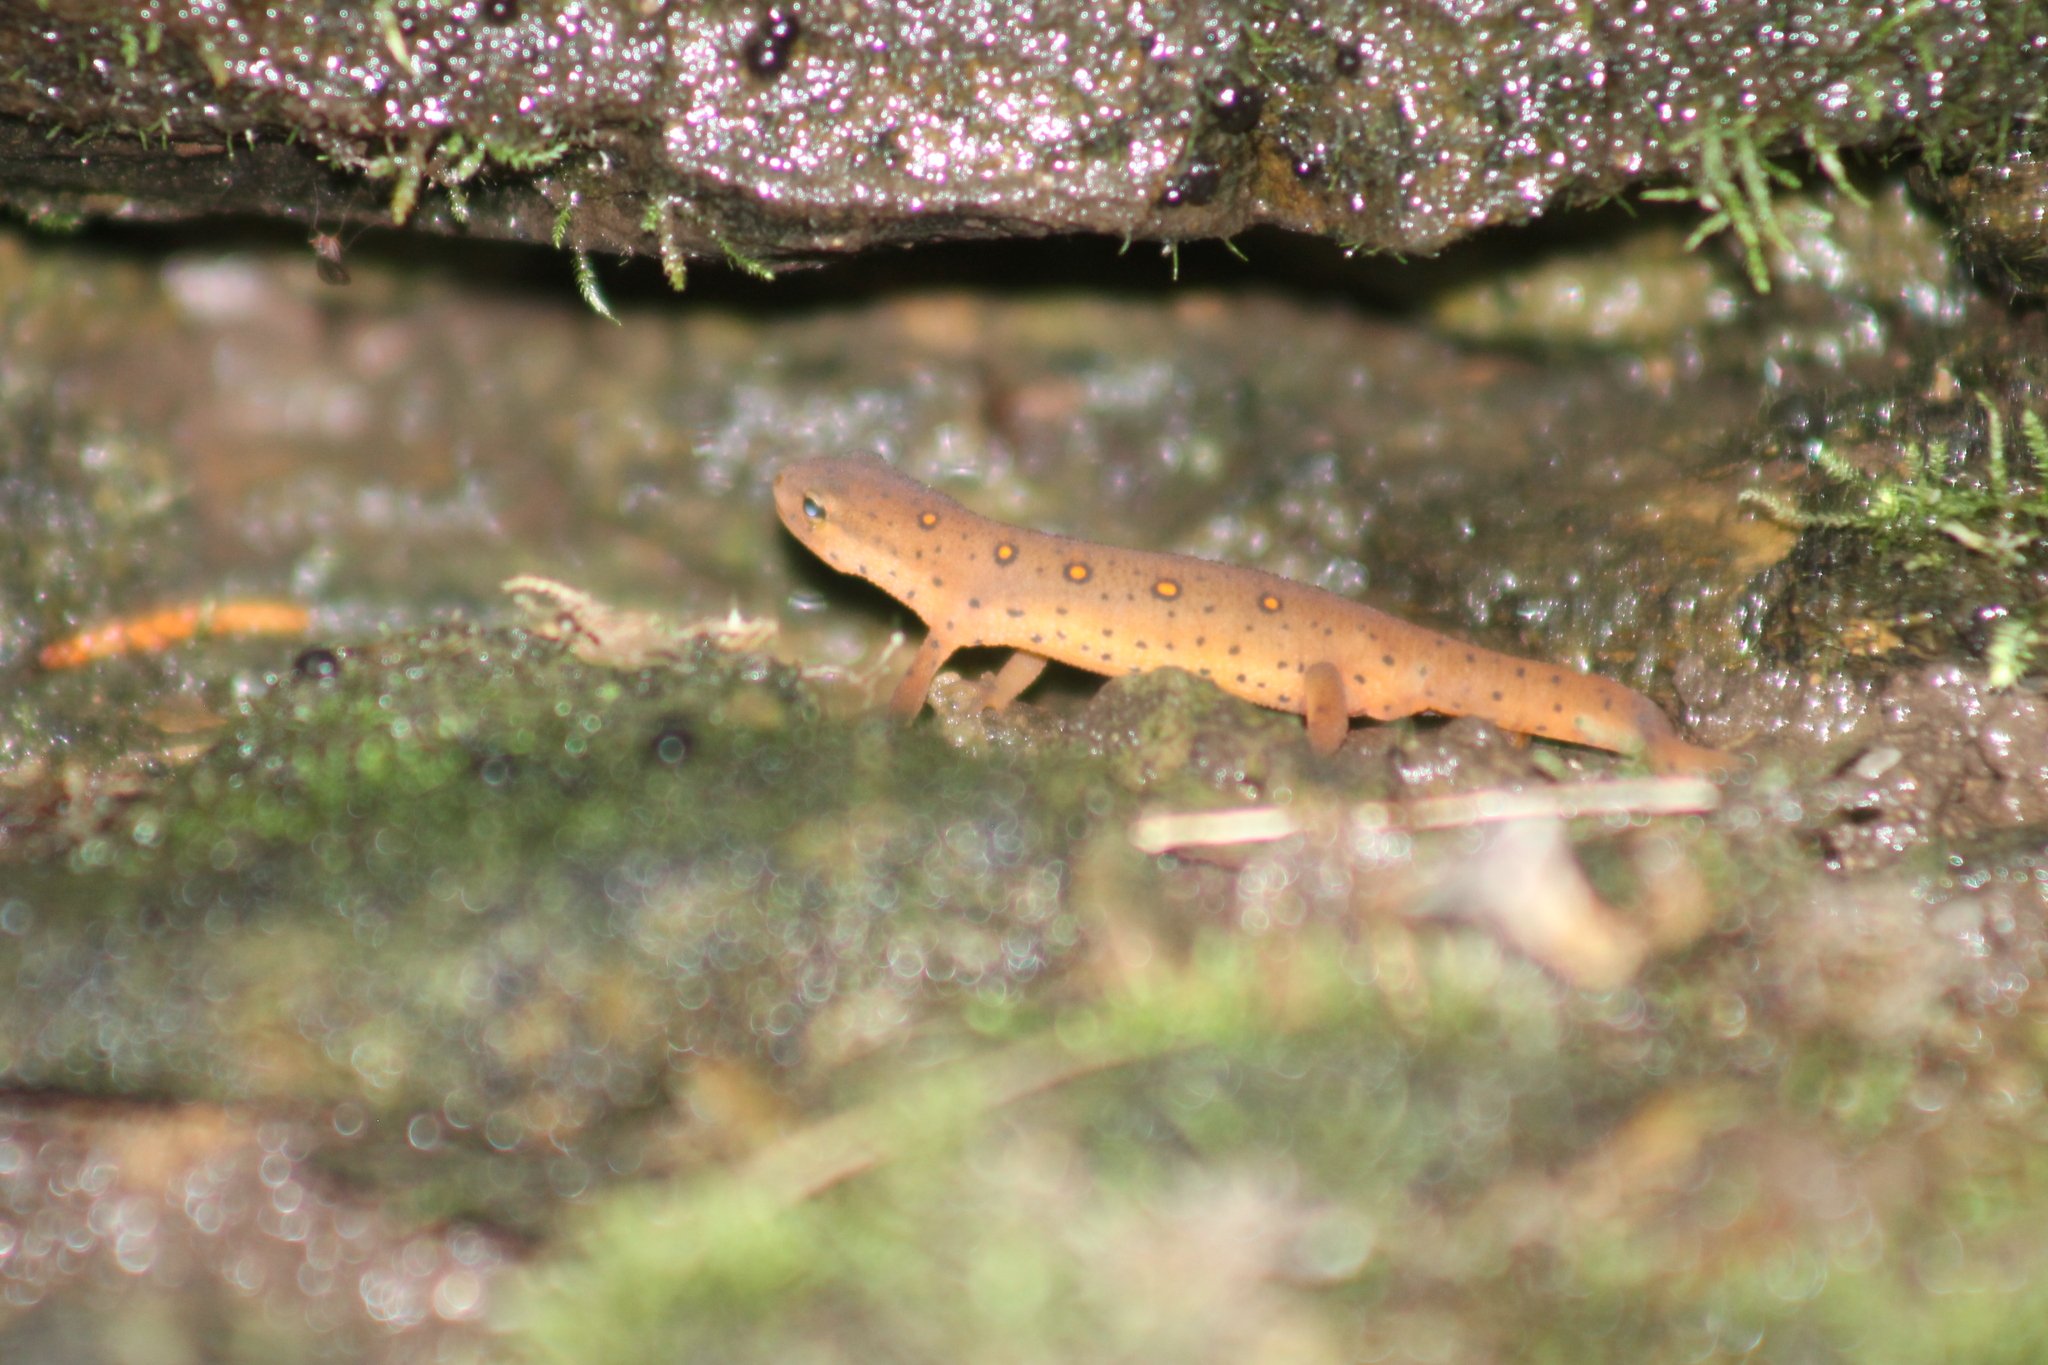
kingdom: Animalia
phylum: Chordata
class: Amphibia
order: Caudata
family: Salamandridae
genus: Notophthalmus
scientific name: Notophthalmus viridescens
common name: Eastern newt
